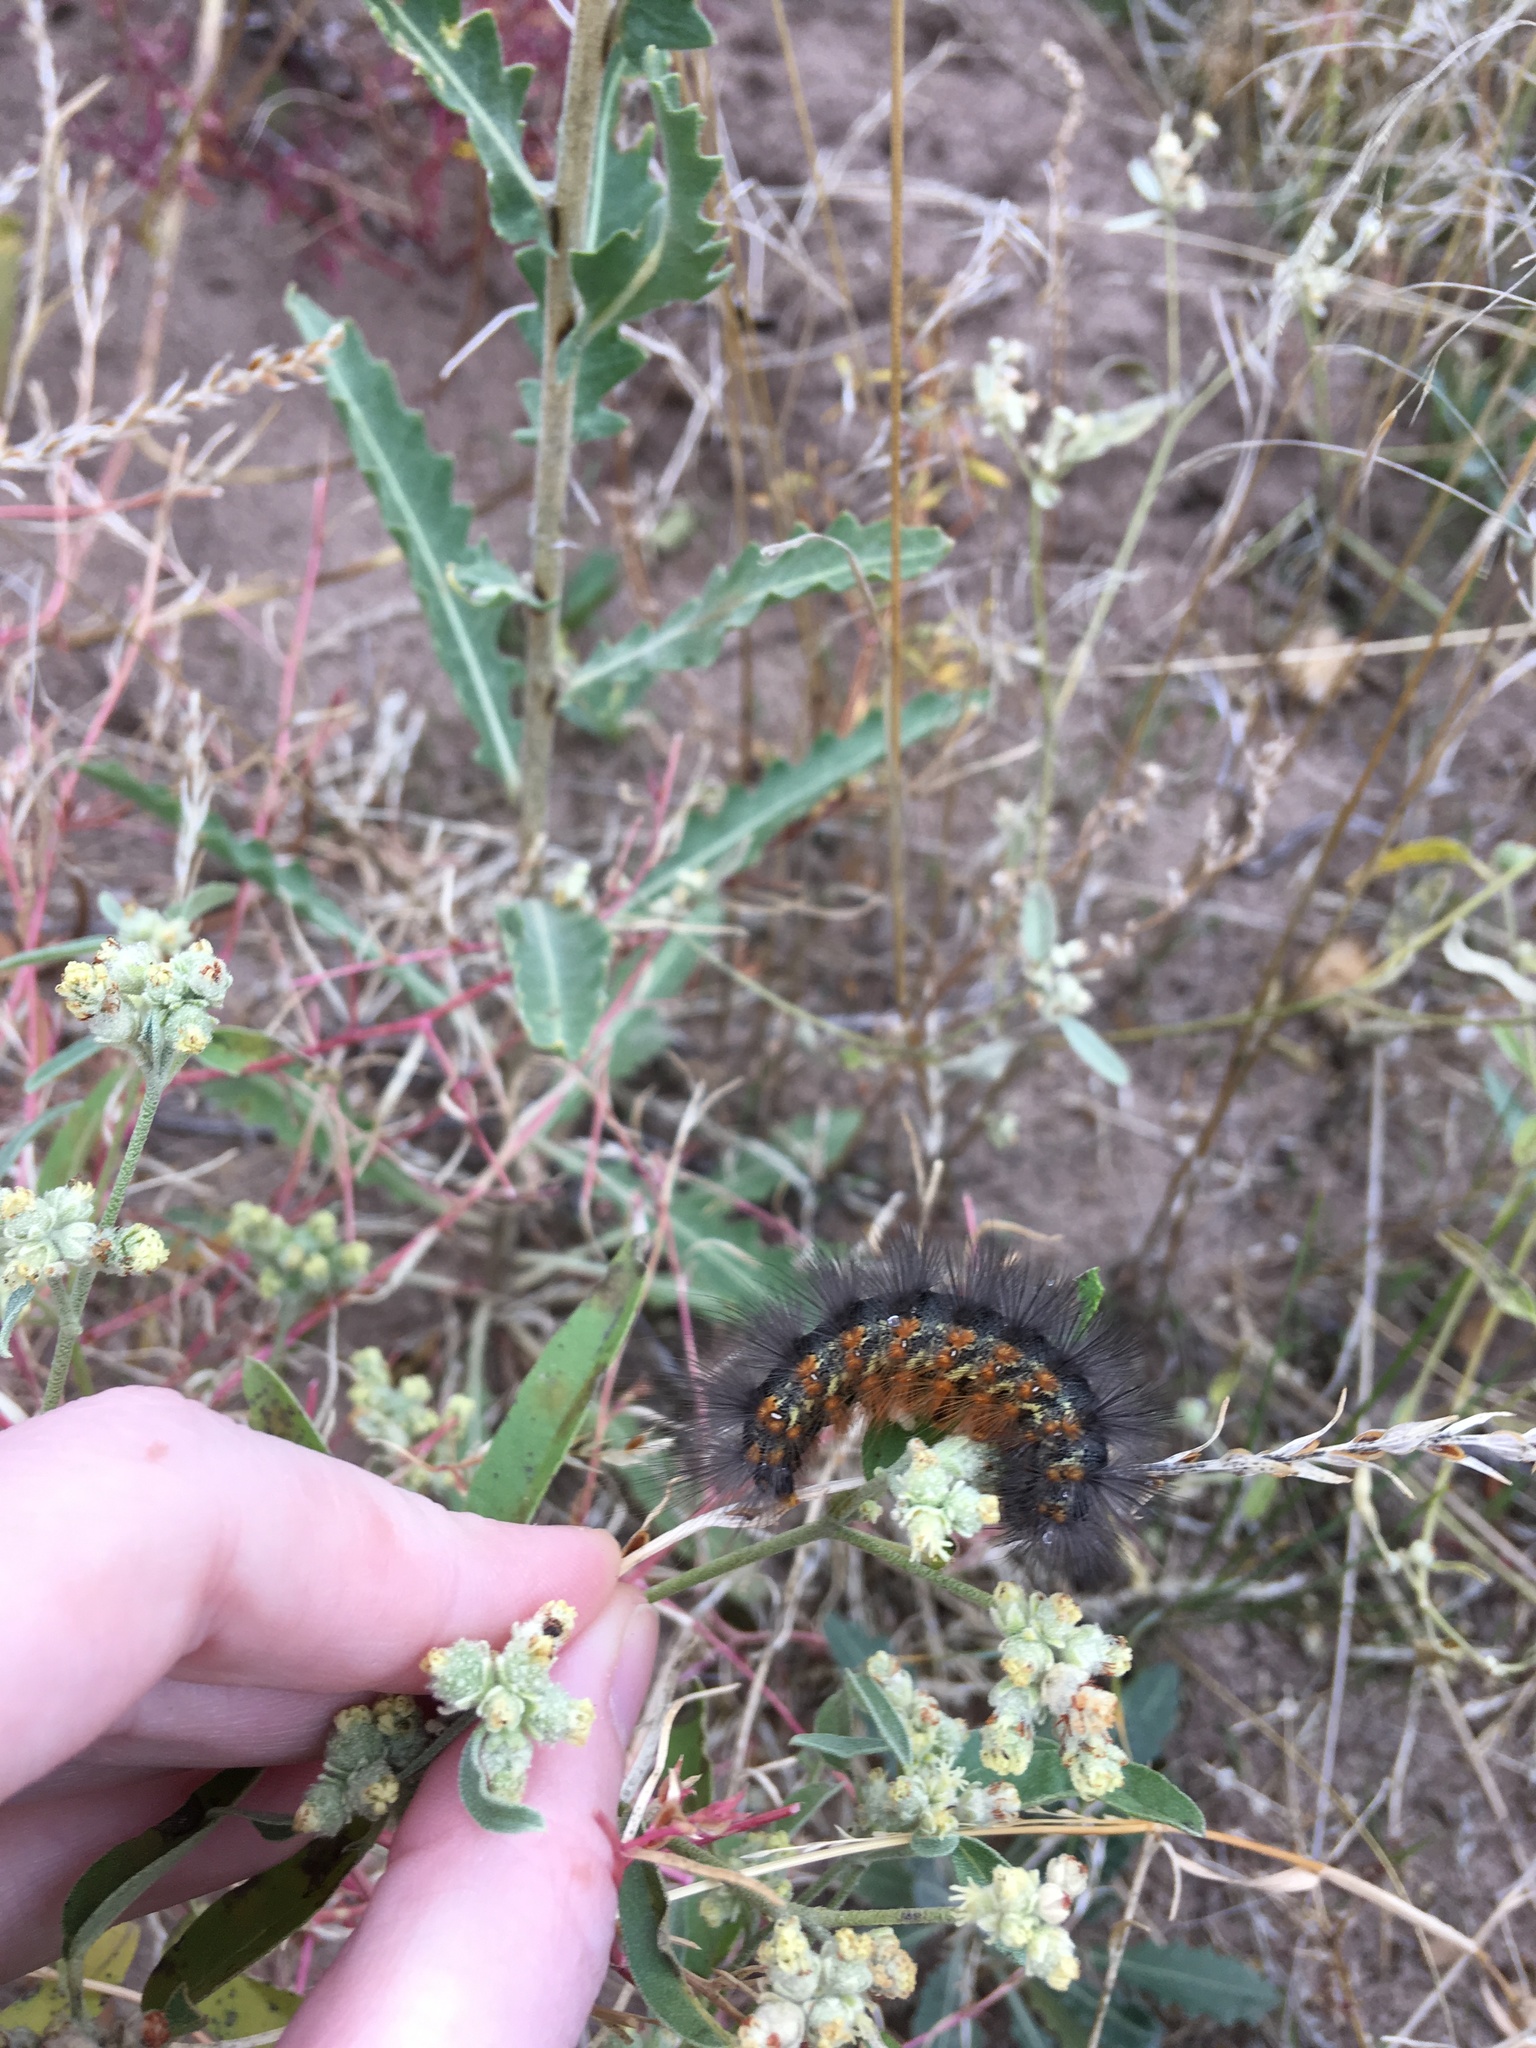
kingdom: Animalia
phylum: Arthropoda
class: Insecta
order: Lepidoptera
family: Erebidae
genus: Estigmene
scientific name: Estigmene acrea
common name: Salt marsh moth
